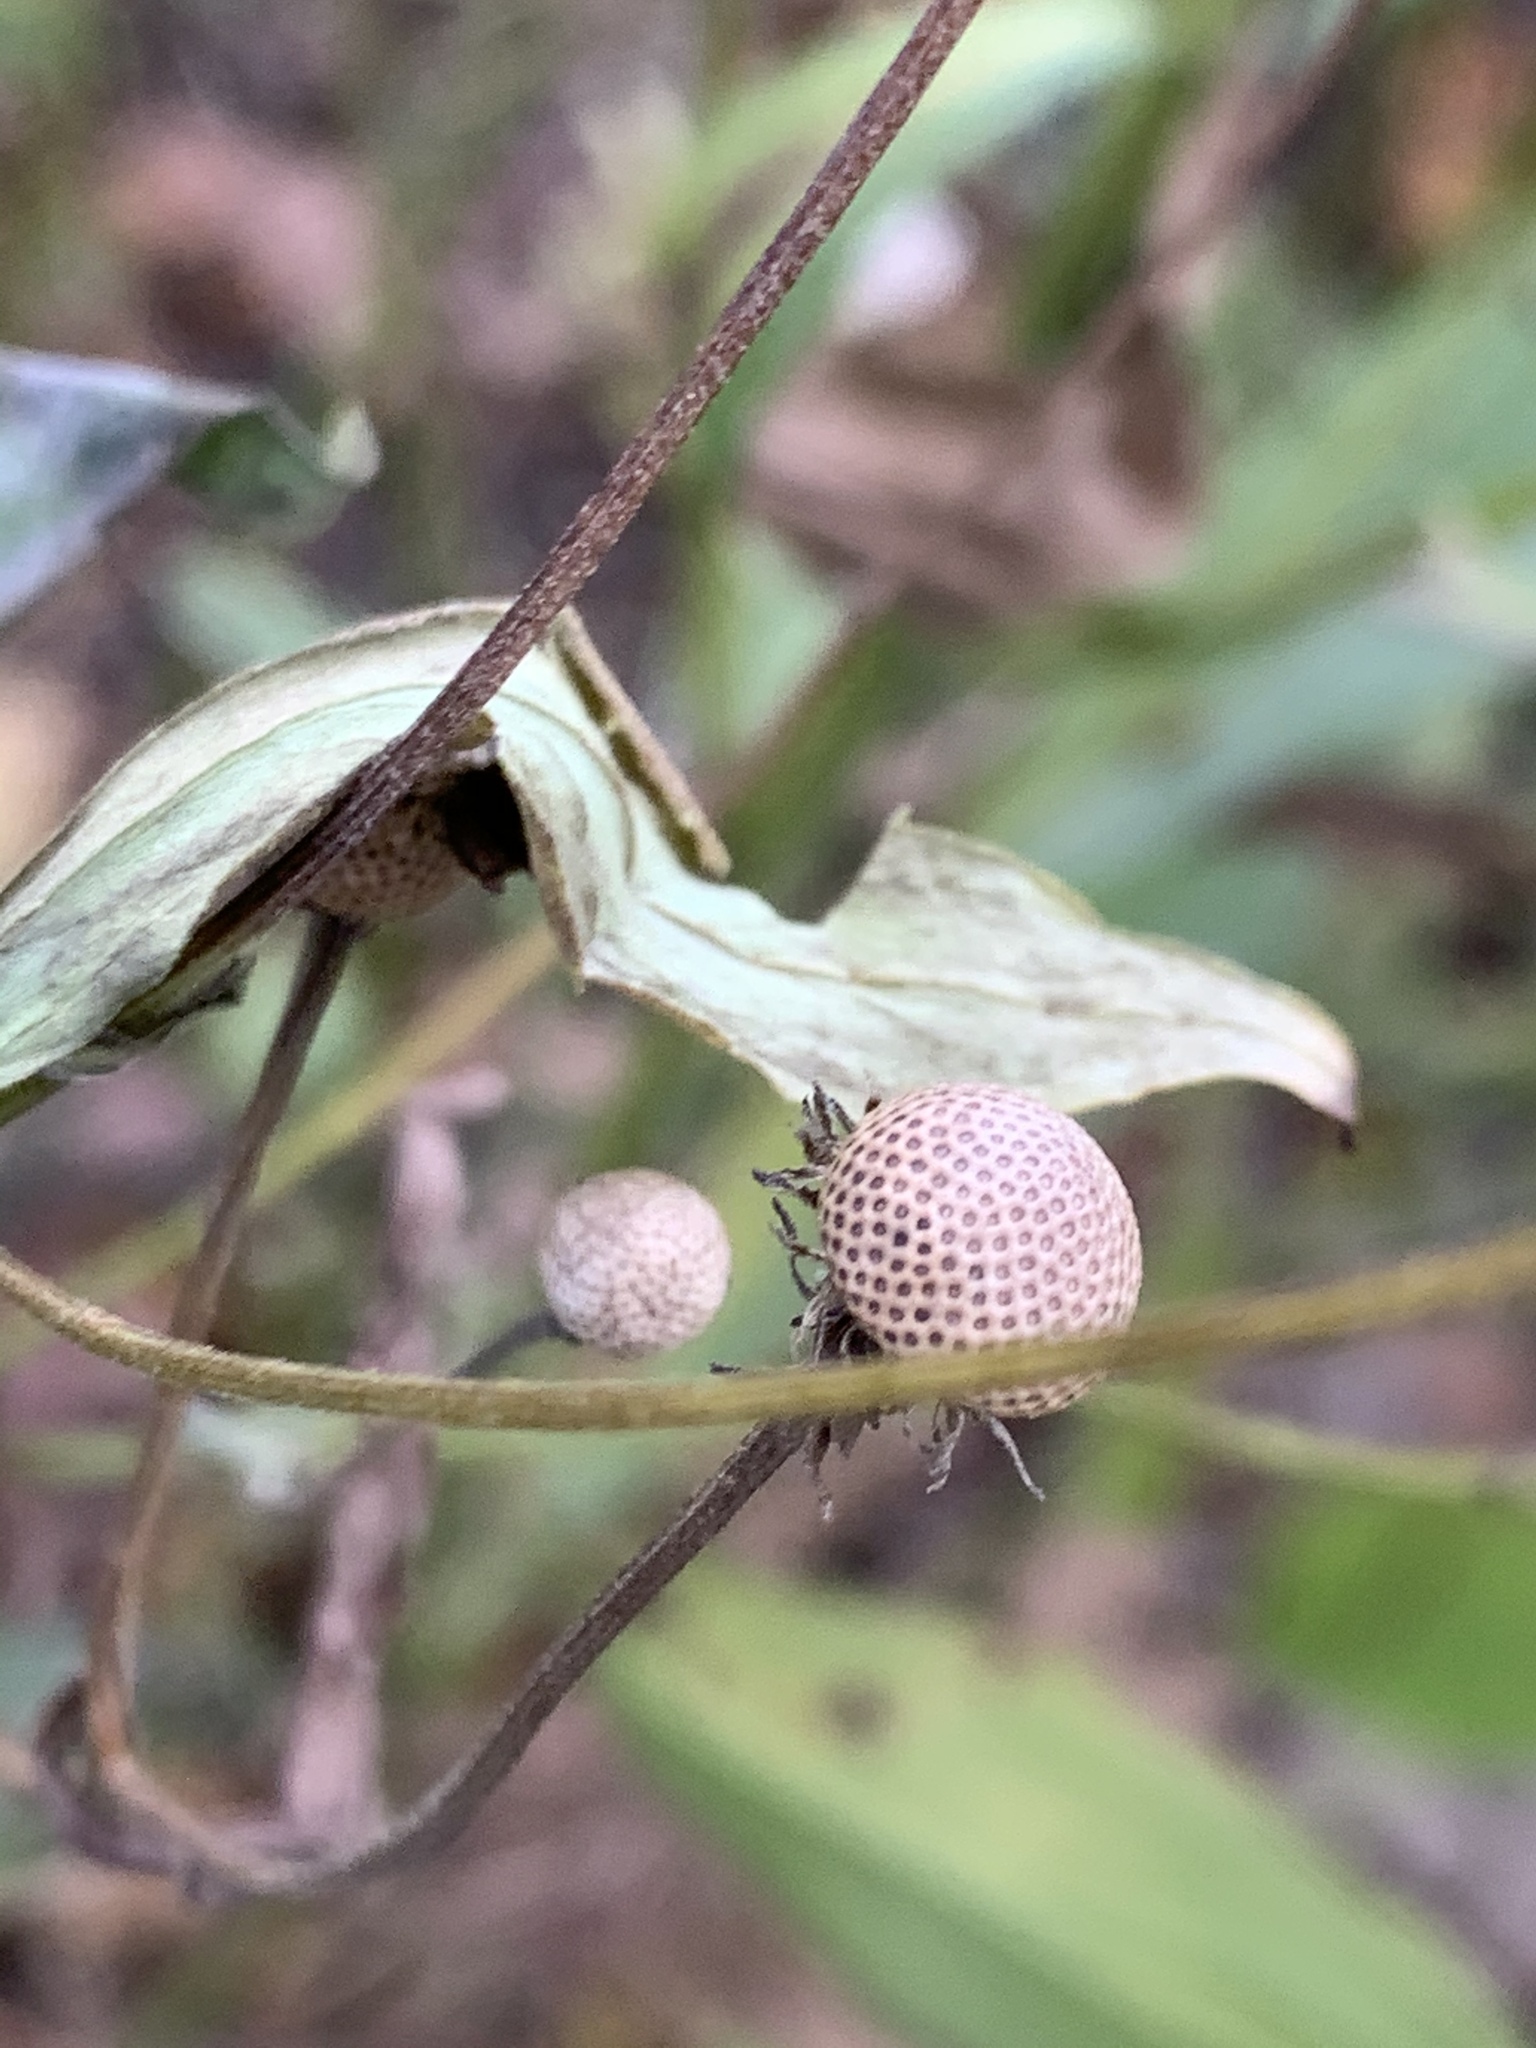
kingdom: Plantae
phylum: Tracheophyta
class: Magnoliopsida
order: Asterales
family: Asteraceae
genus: Helenium
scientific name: Helenium autumnale
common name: Sneezeweed
